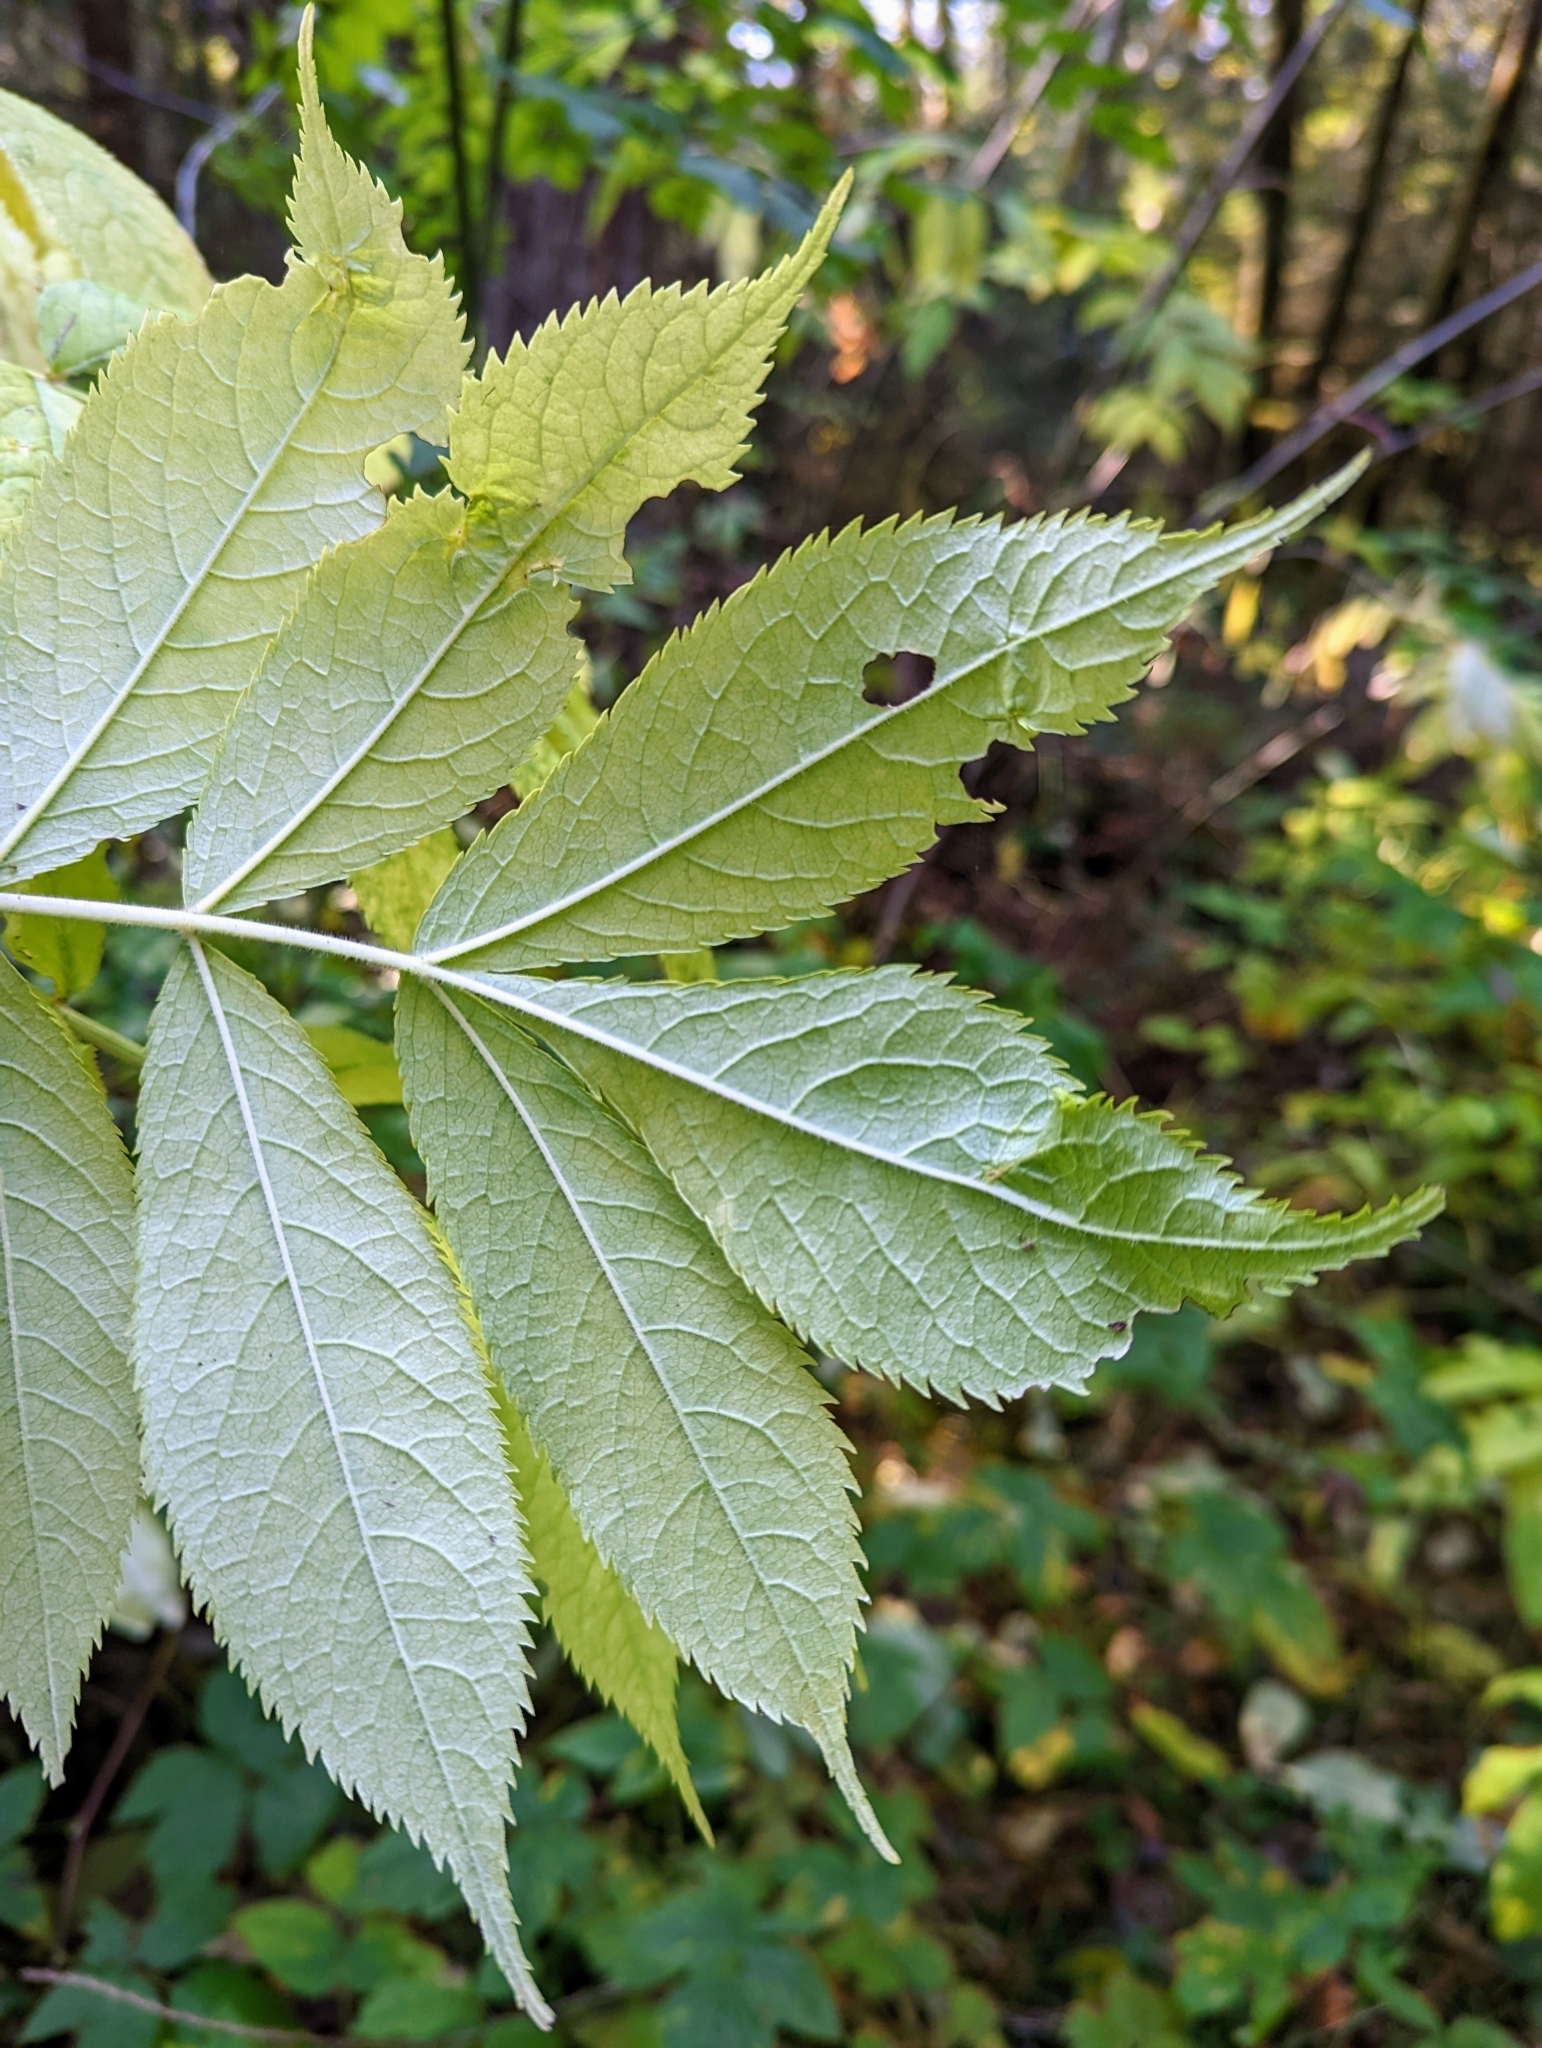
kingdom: Plantae
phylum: Tracheophyta
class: Magnoliopsida
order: Dipsacales
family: Viburnaceae
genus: Sambucus
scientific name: Sambucus racemosa
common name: Red-berried elder
